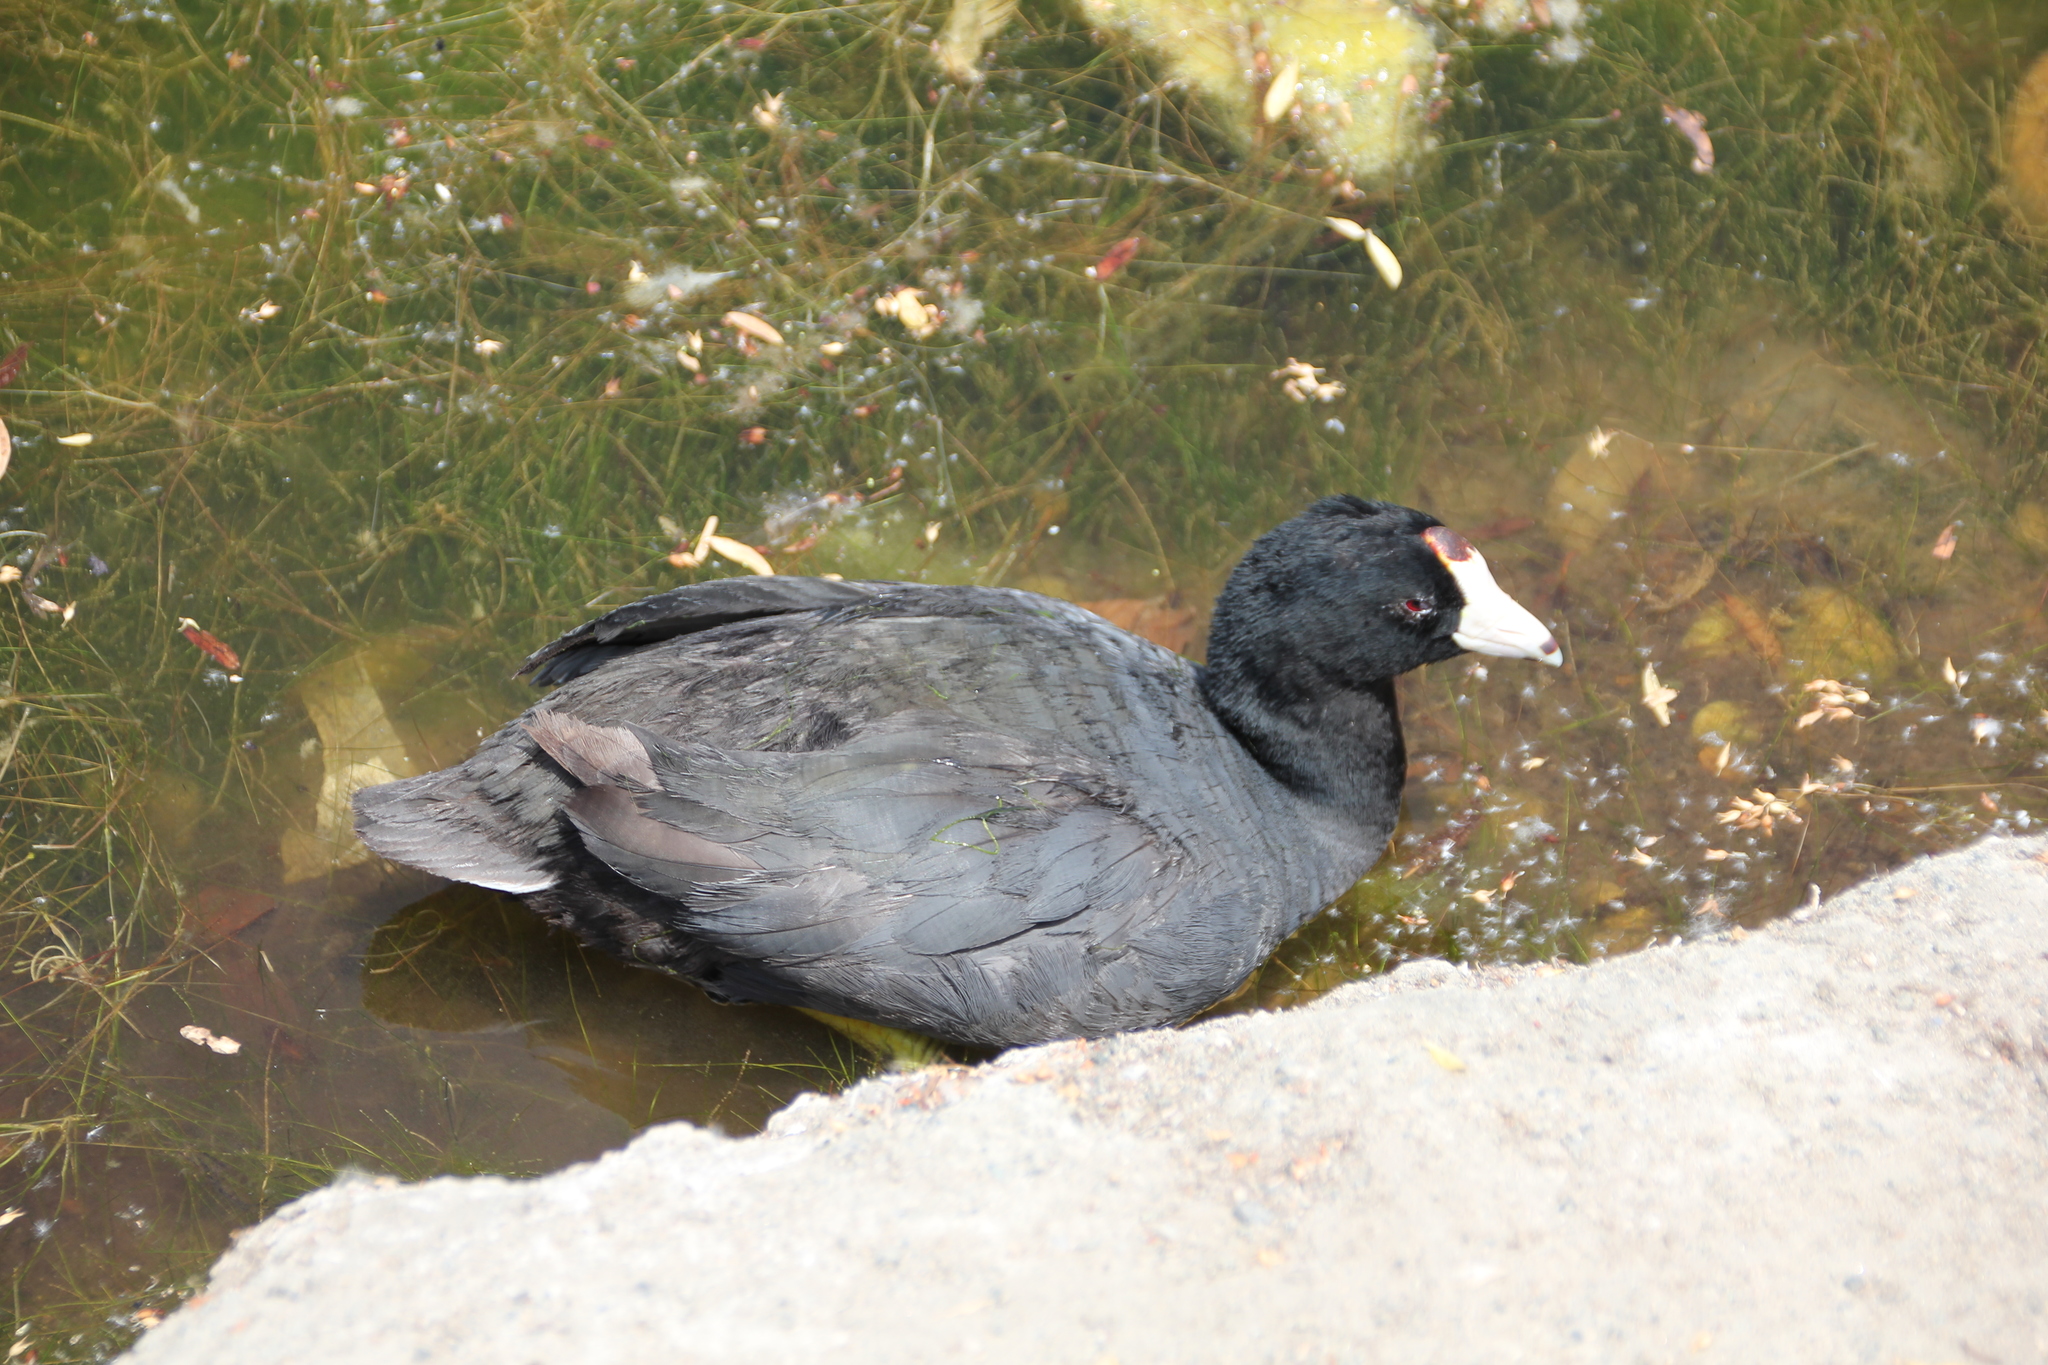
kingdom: Animalia
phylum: Chordata
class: Aves
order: Gruiformes
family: Rallidae
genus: Fulica
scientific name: Fulica americana
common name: American coot
